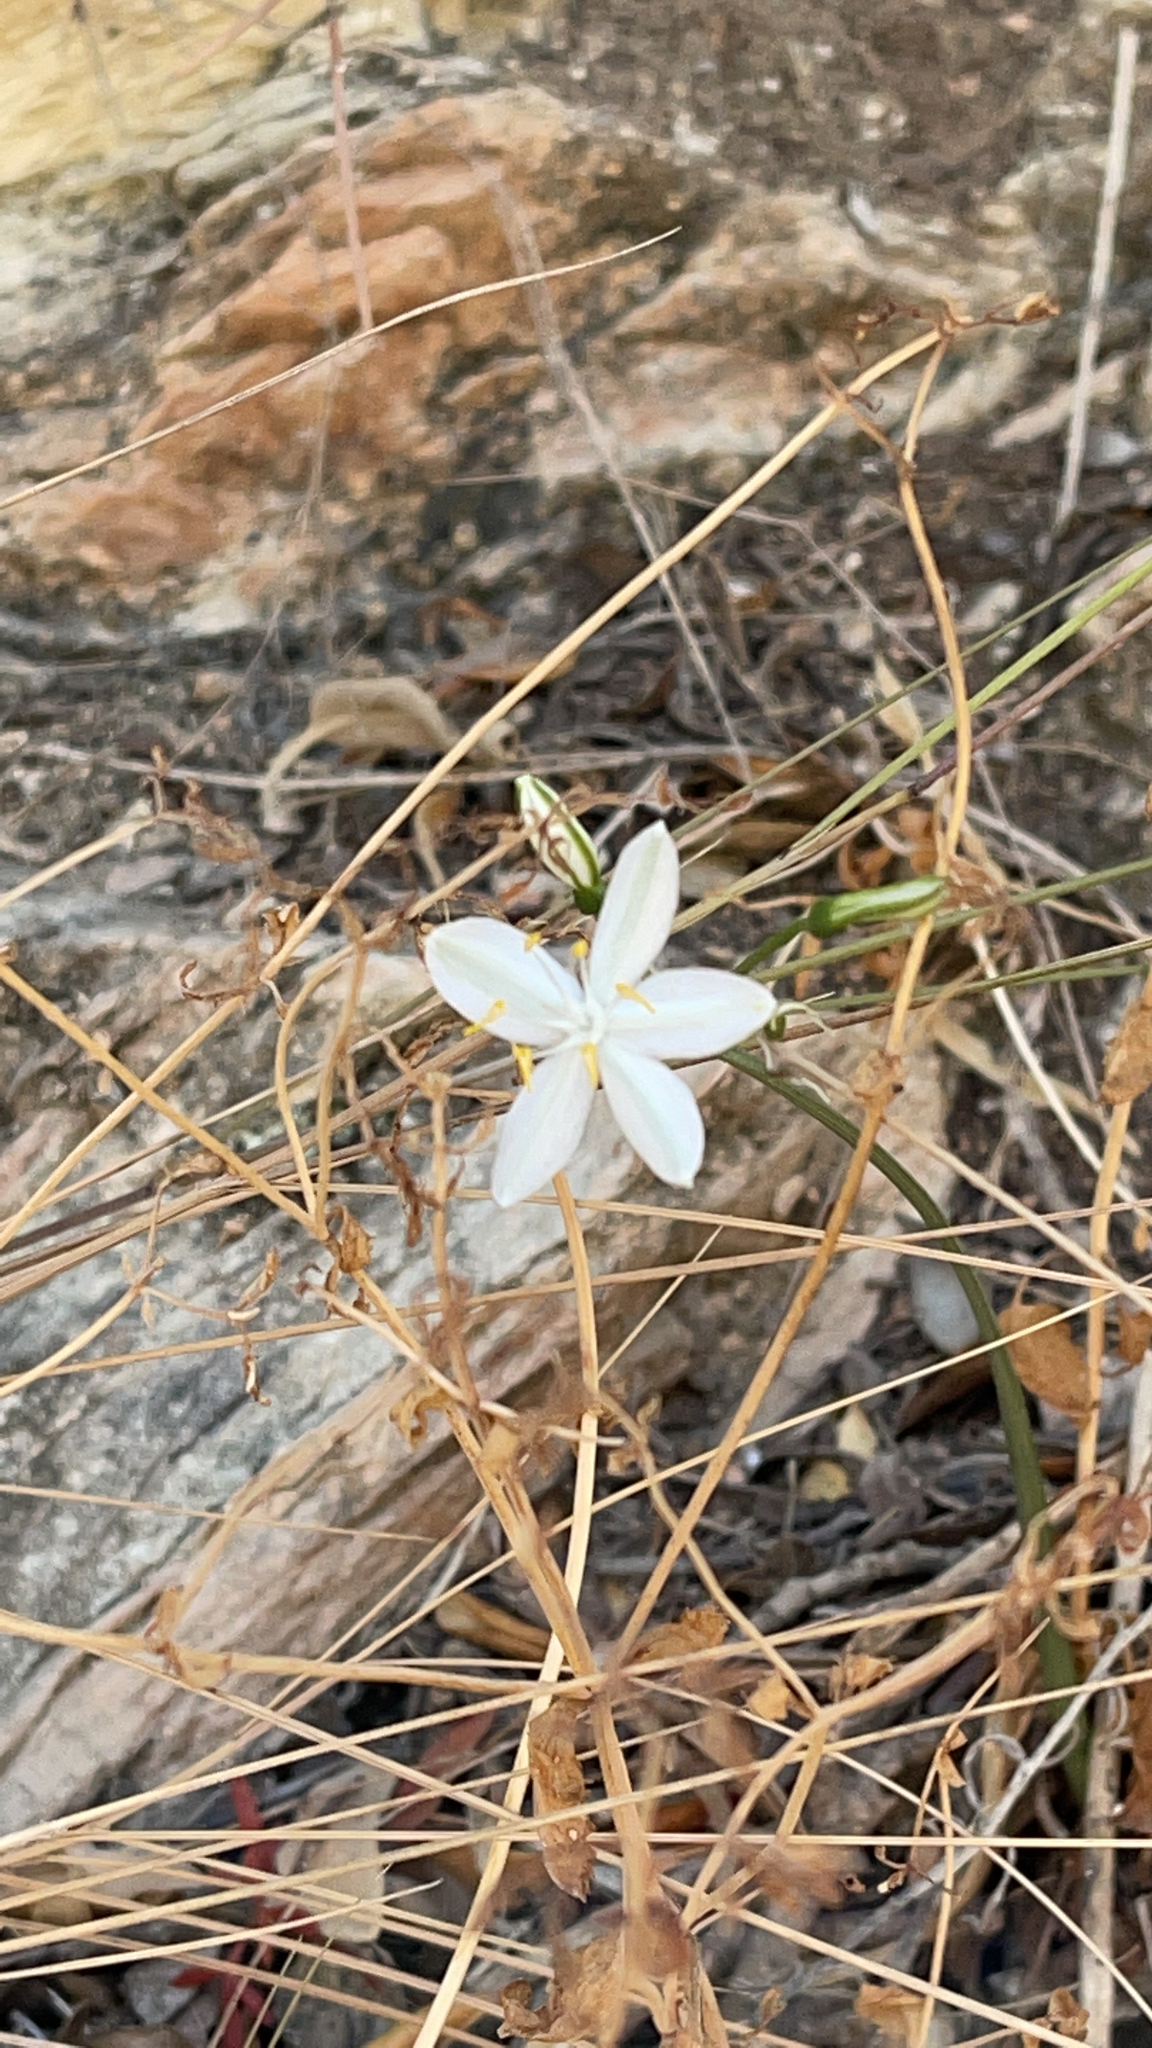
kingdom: Plantae
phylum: Tracheophyta
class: Liliopsida
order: Asparagales
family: Amaryllidaceae
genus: Lapiedra
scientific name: Lapiedra martinezii
